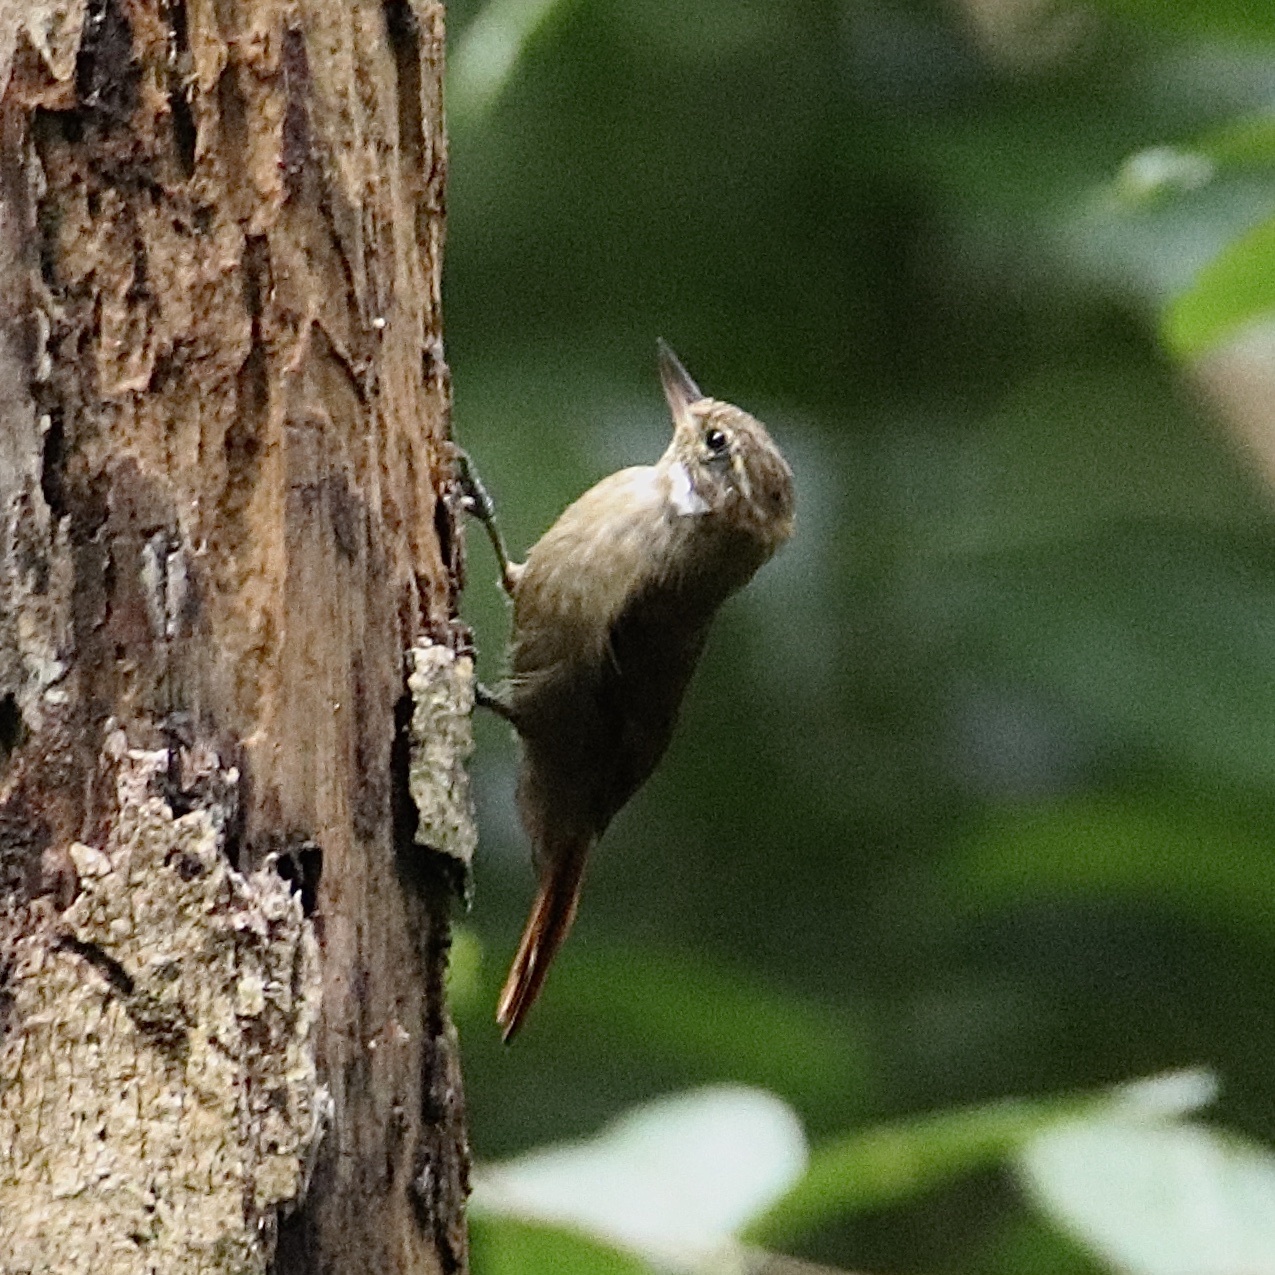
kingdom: Animalia
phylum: Chordata
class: Aves
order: Passeriformes
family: Furnariidae
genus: Xenops
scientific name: Xenops minutus
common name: Plain xenops
